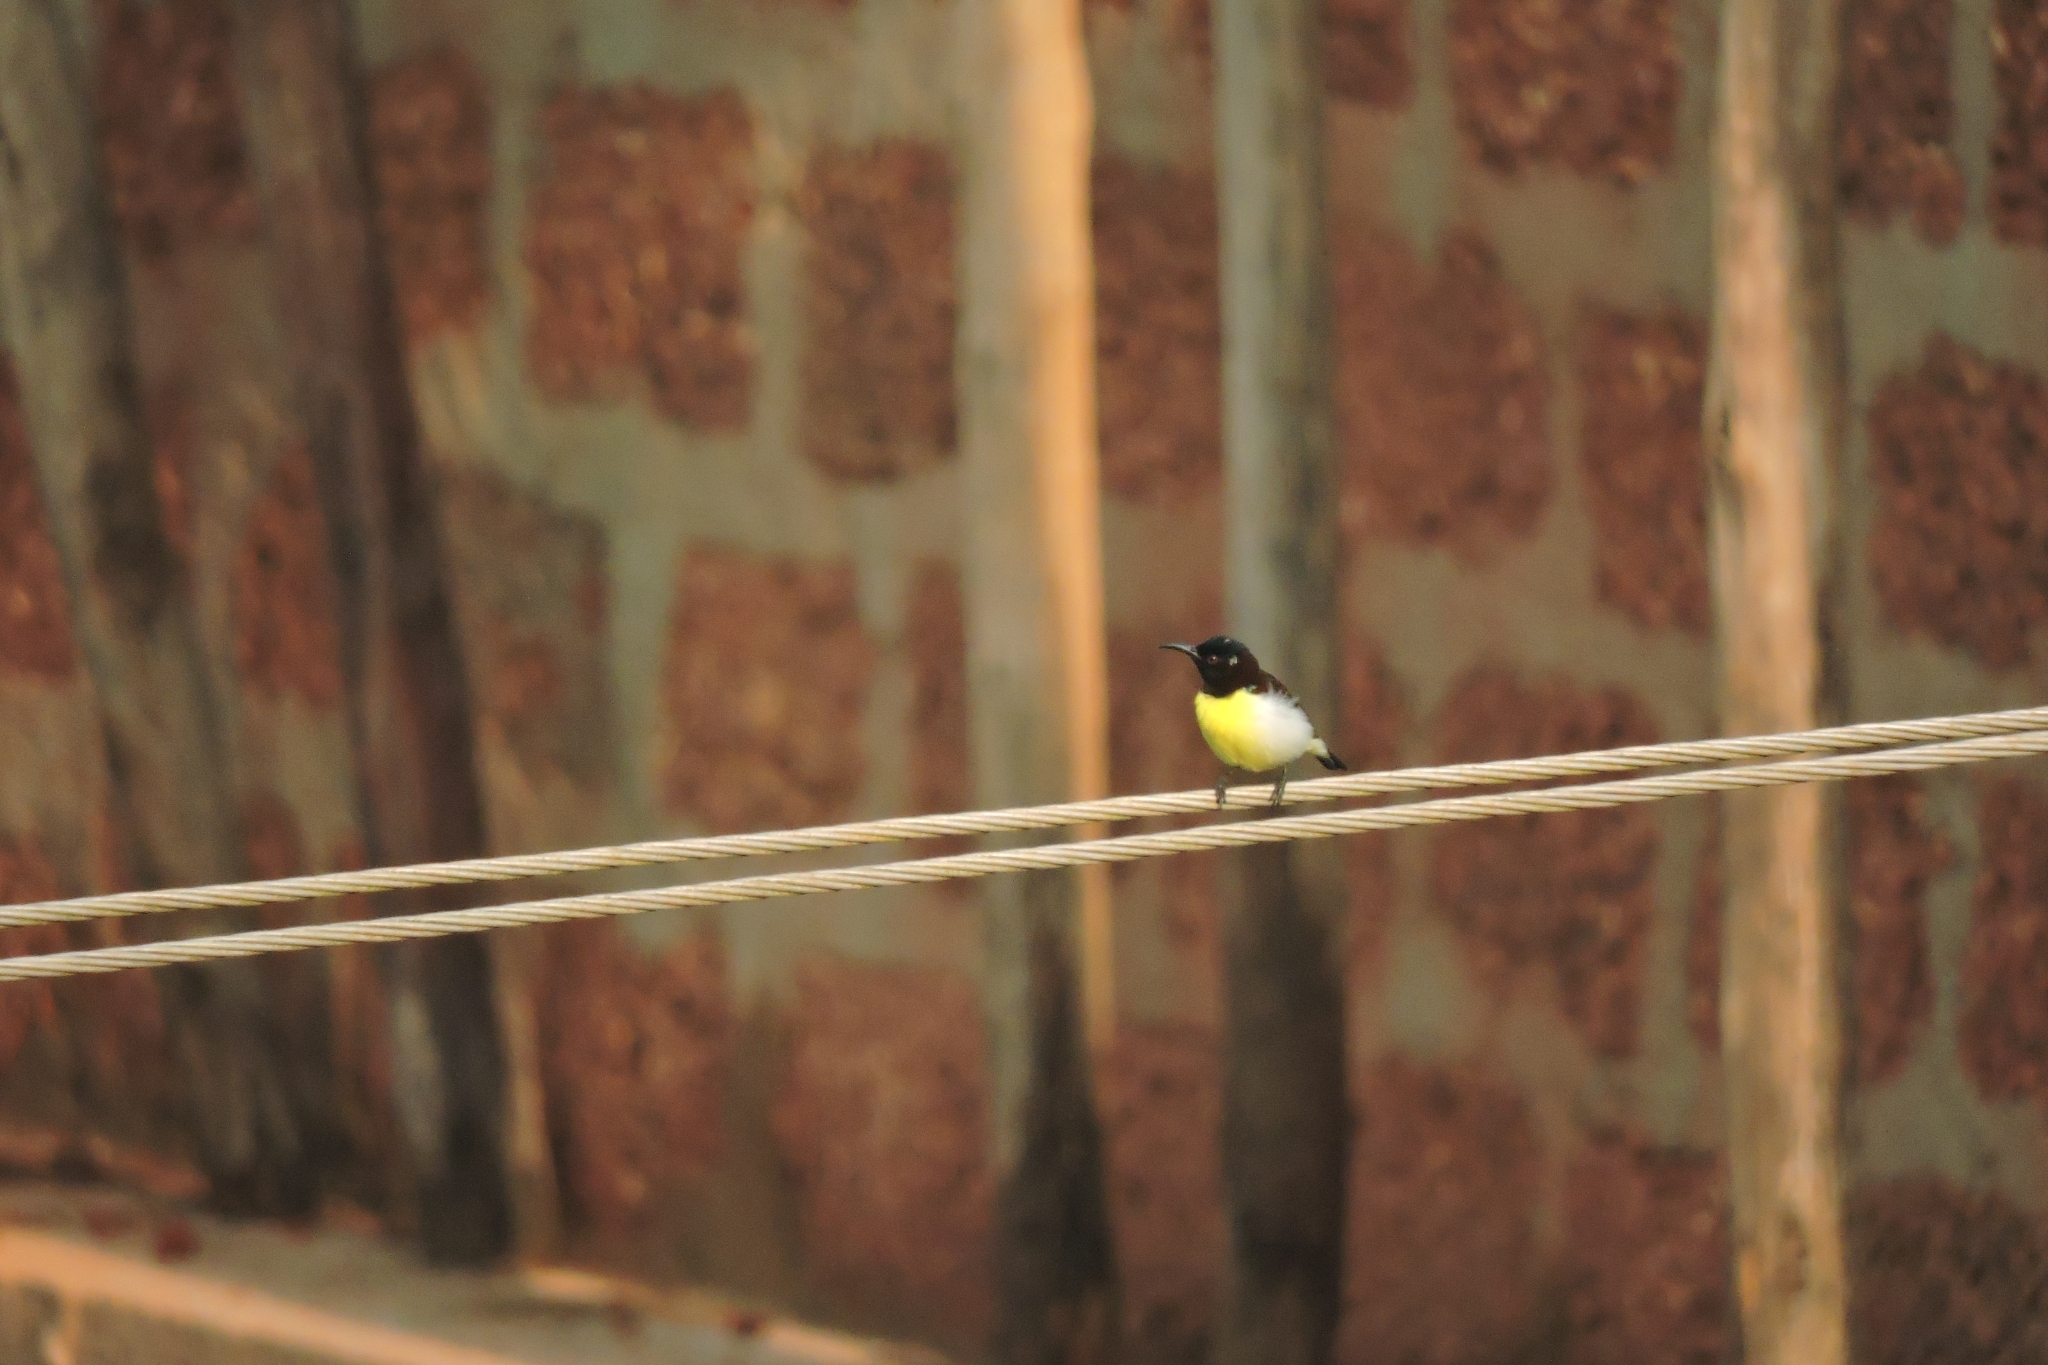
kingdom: Animalia
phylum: Chordata
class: Aves
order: Passeriformes
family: Nectariniidae
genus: Leptocoma
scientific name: Leptocoma zeylonica
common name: Purple-rumped sunbird
